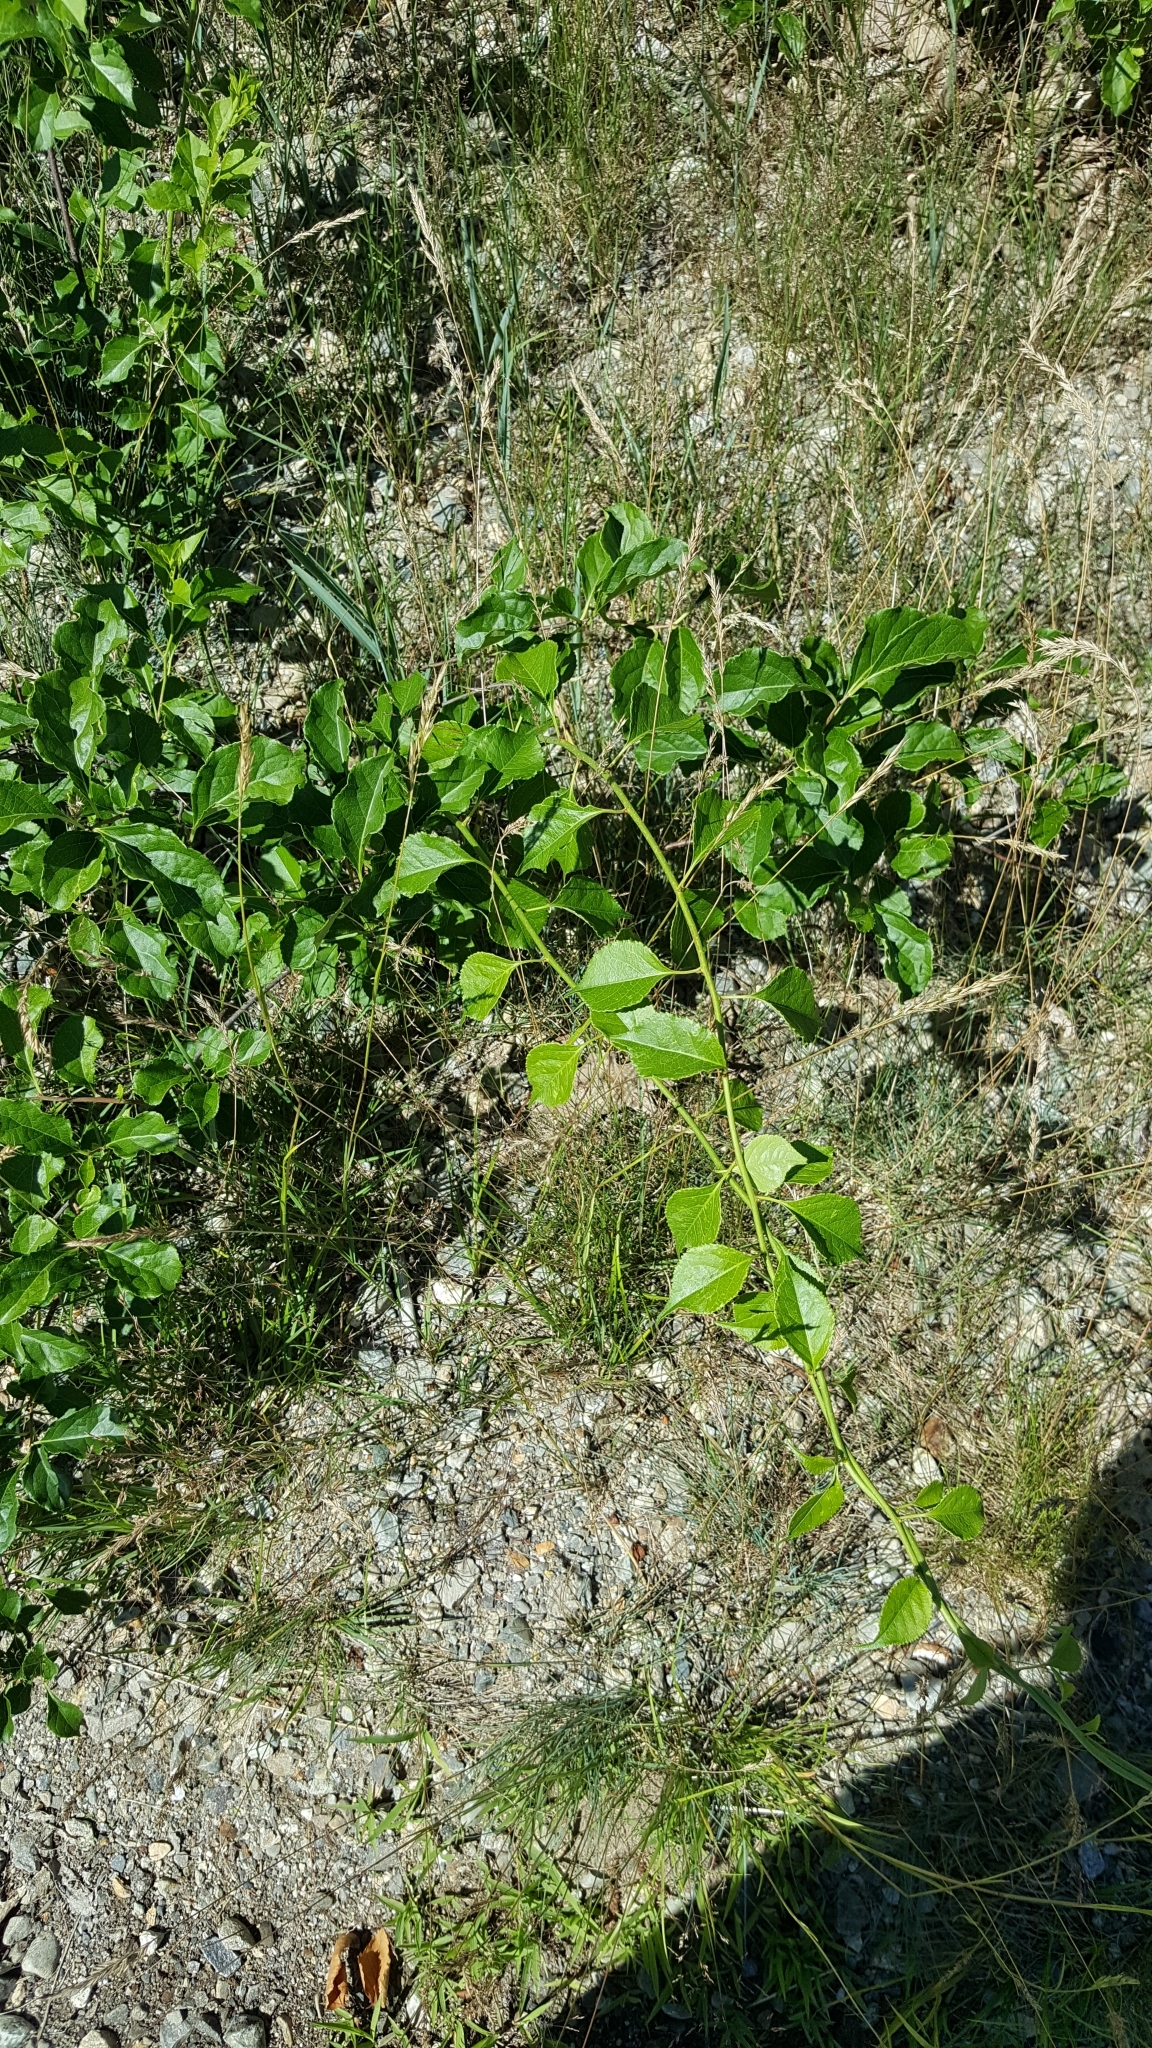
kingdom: Plantae
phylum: Tracheophyta
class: Magnoliopsida
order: Celastrales
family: Celastraceae
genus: Celastrus
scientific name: Celastrus orbiculatus
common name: Oriental bittersweet
